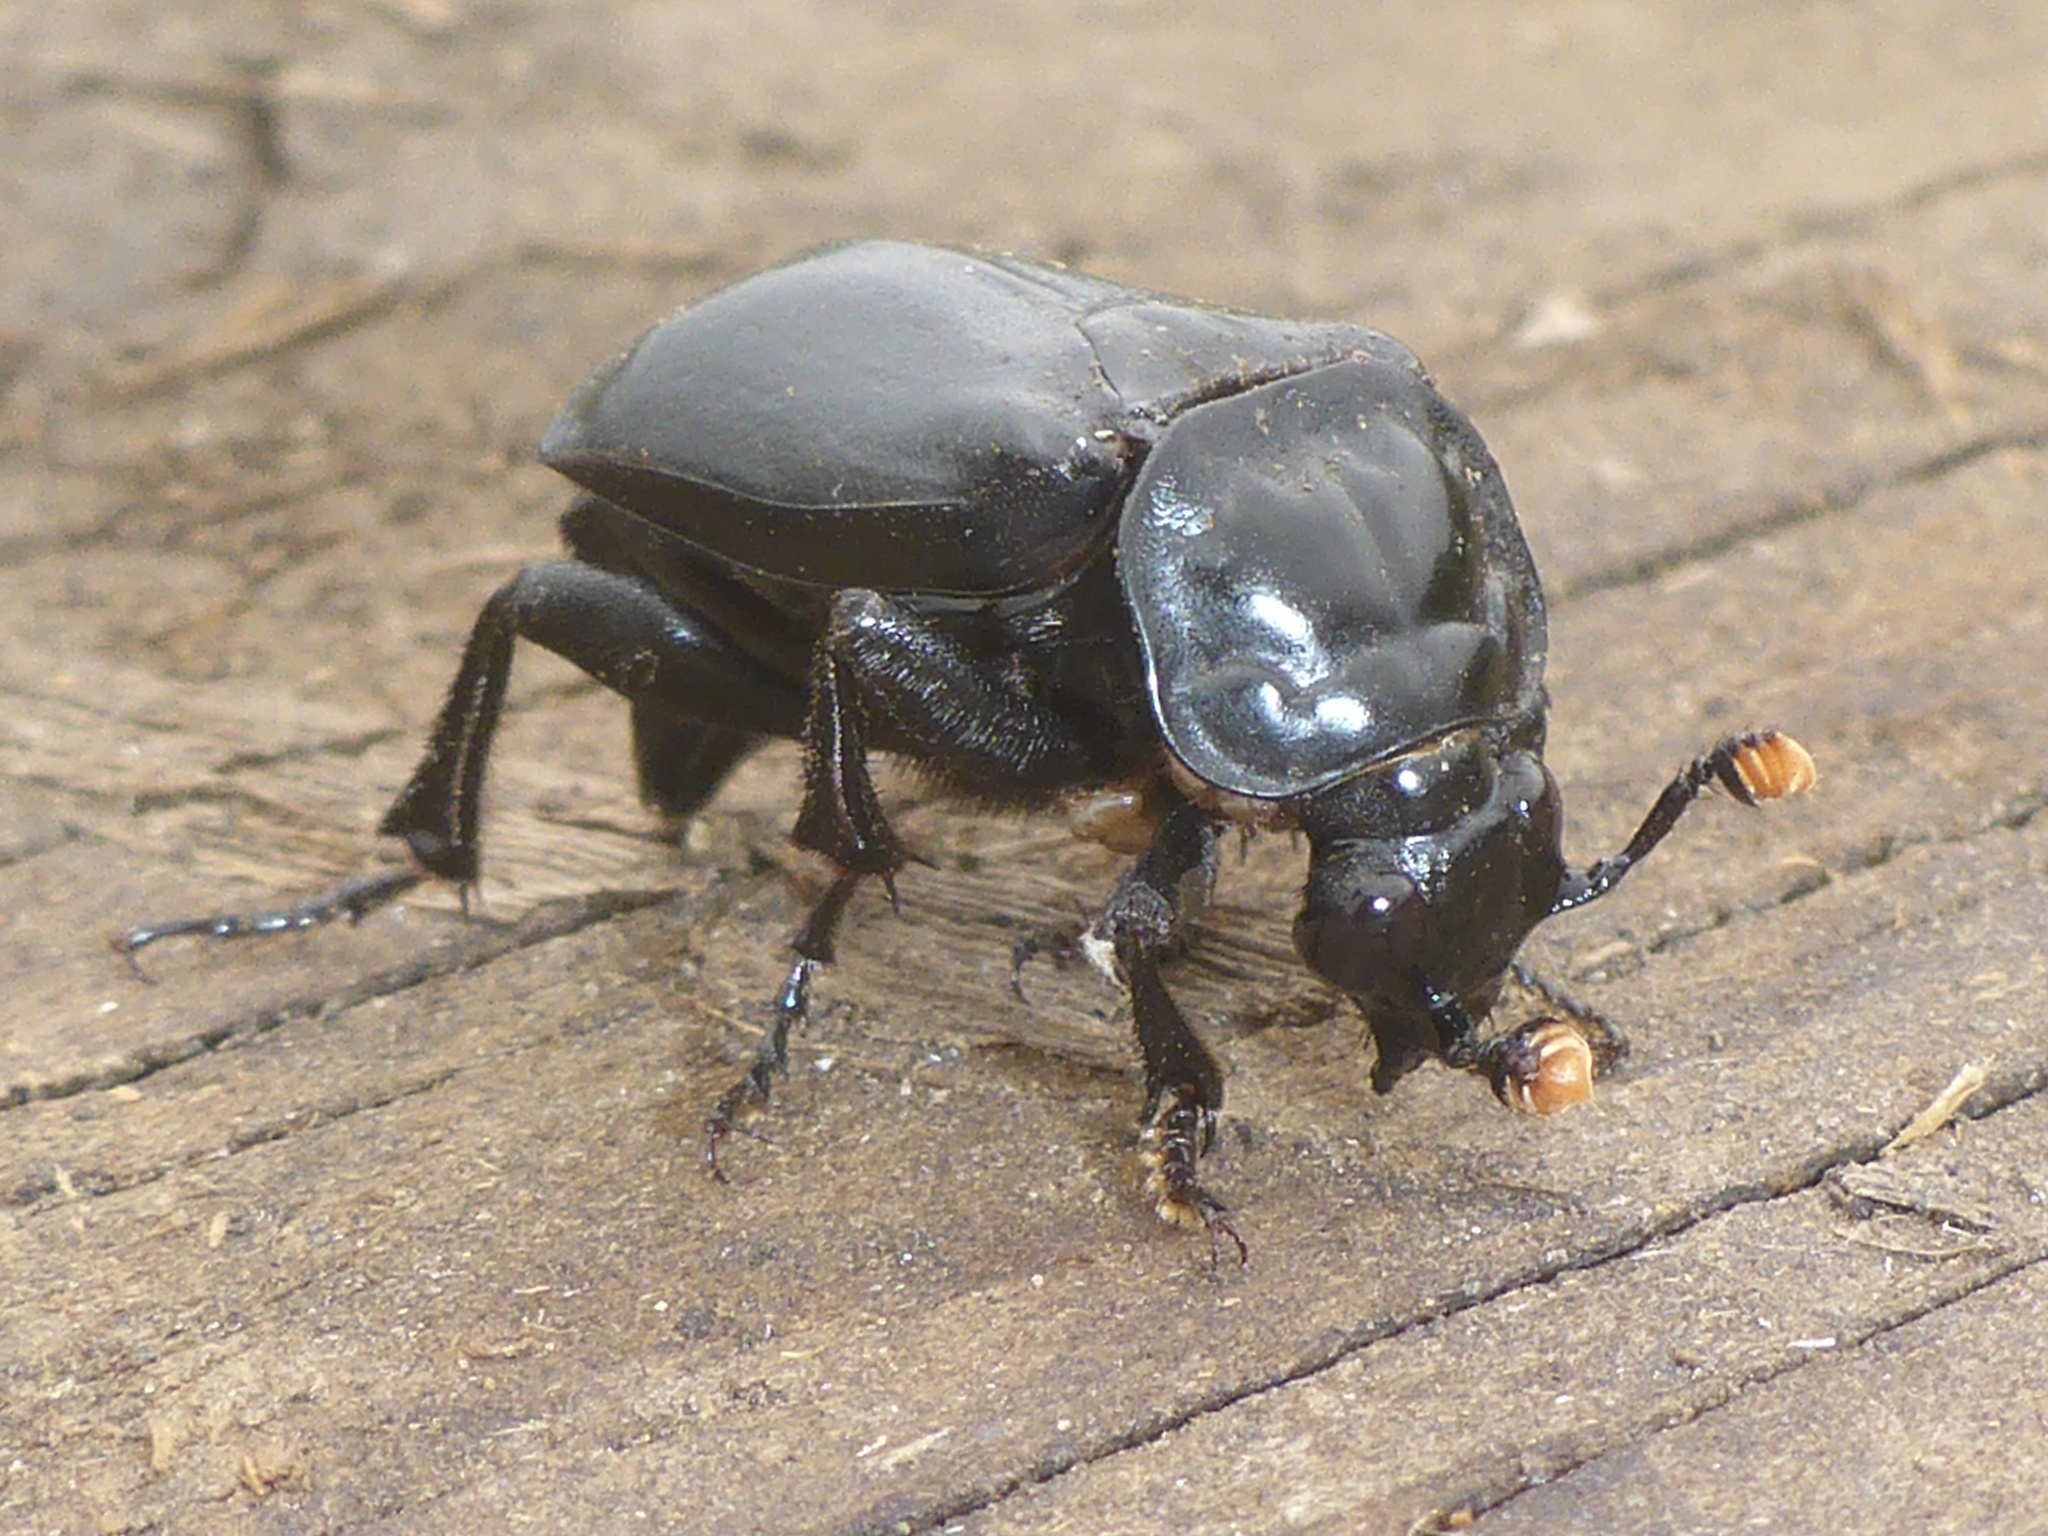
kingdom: Animalia
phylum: Arthropoda
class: Insecta
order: Coleoptera
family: Staphylinidae
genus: Nicrophorus
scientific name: Nicrophorus nigrita
